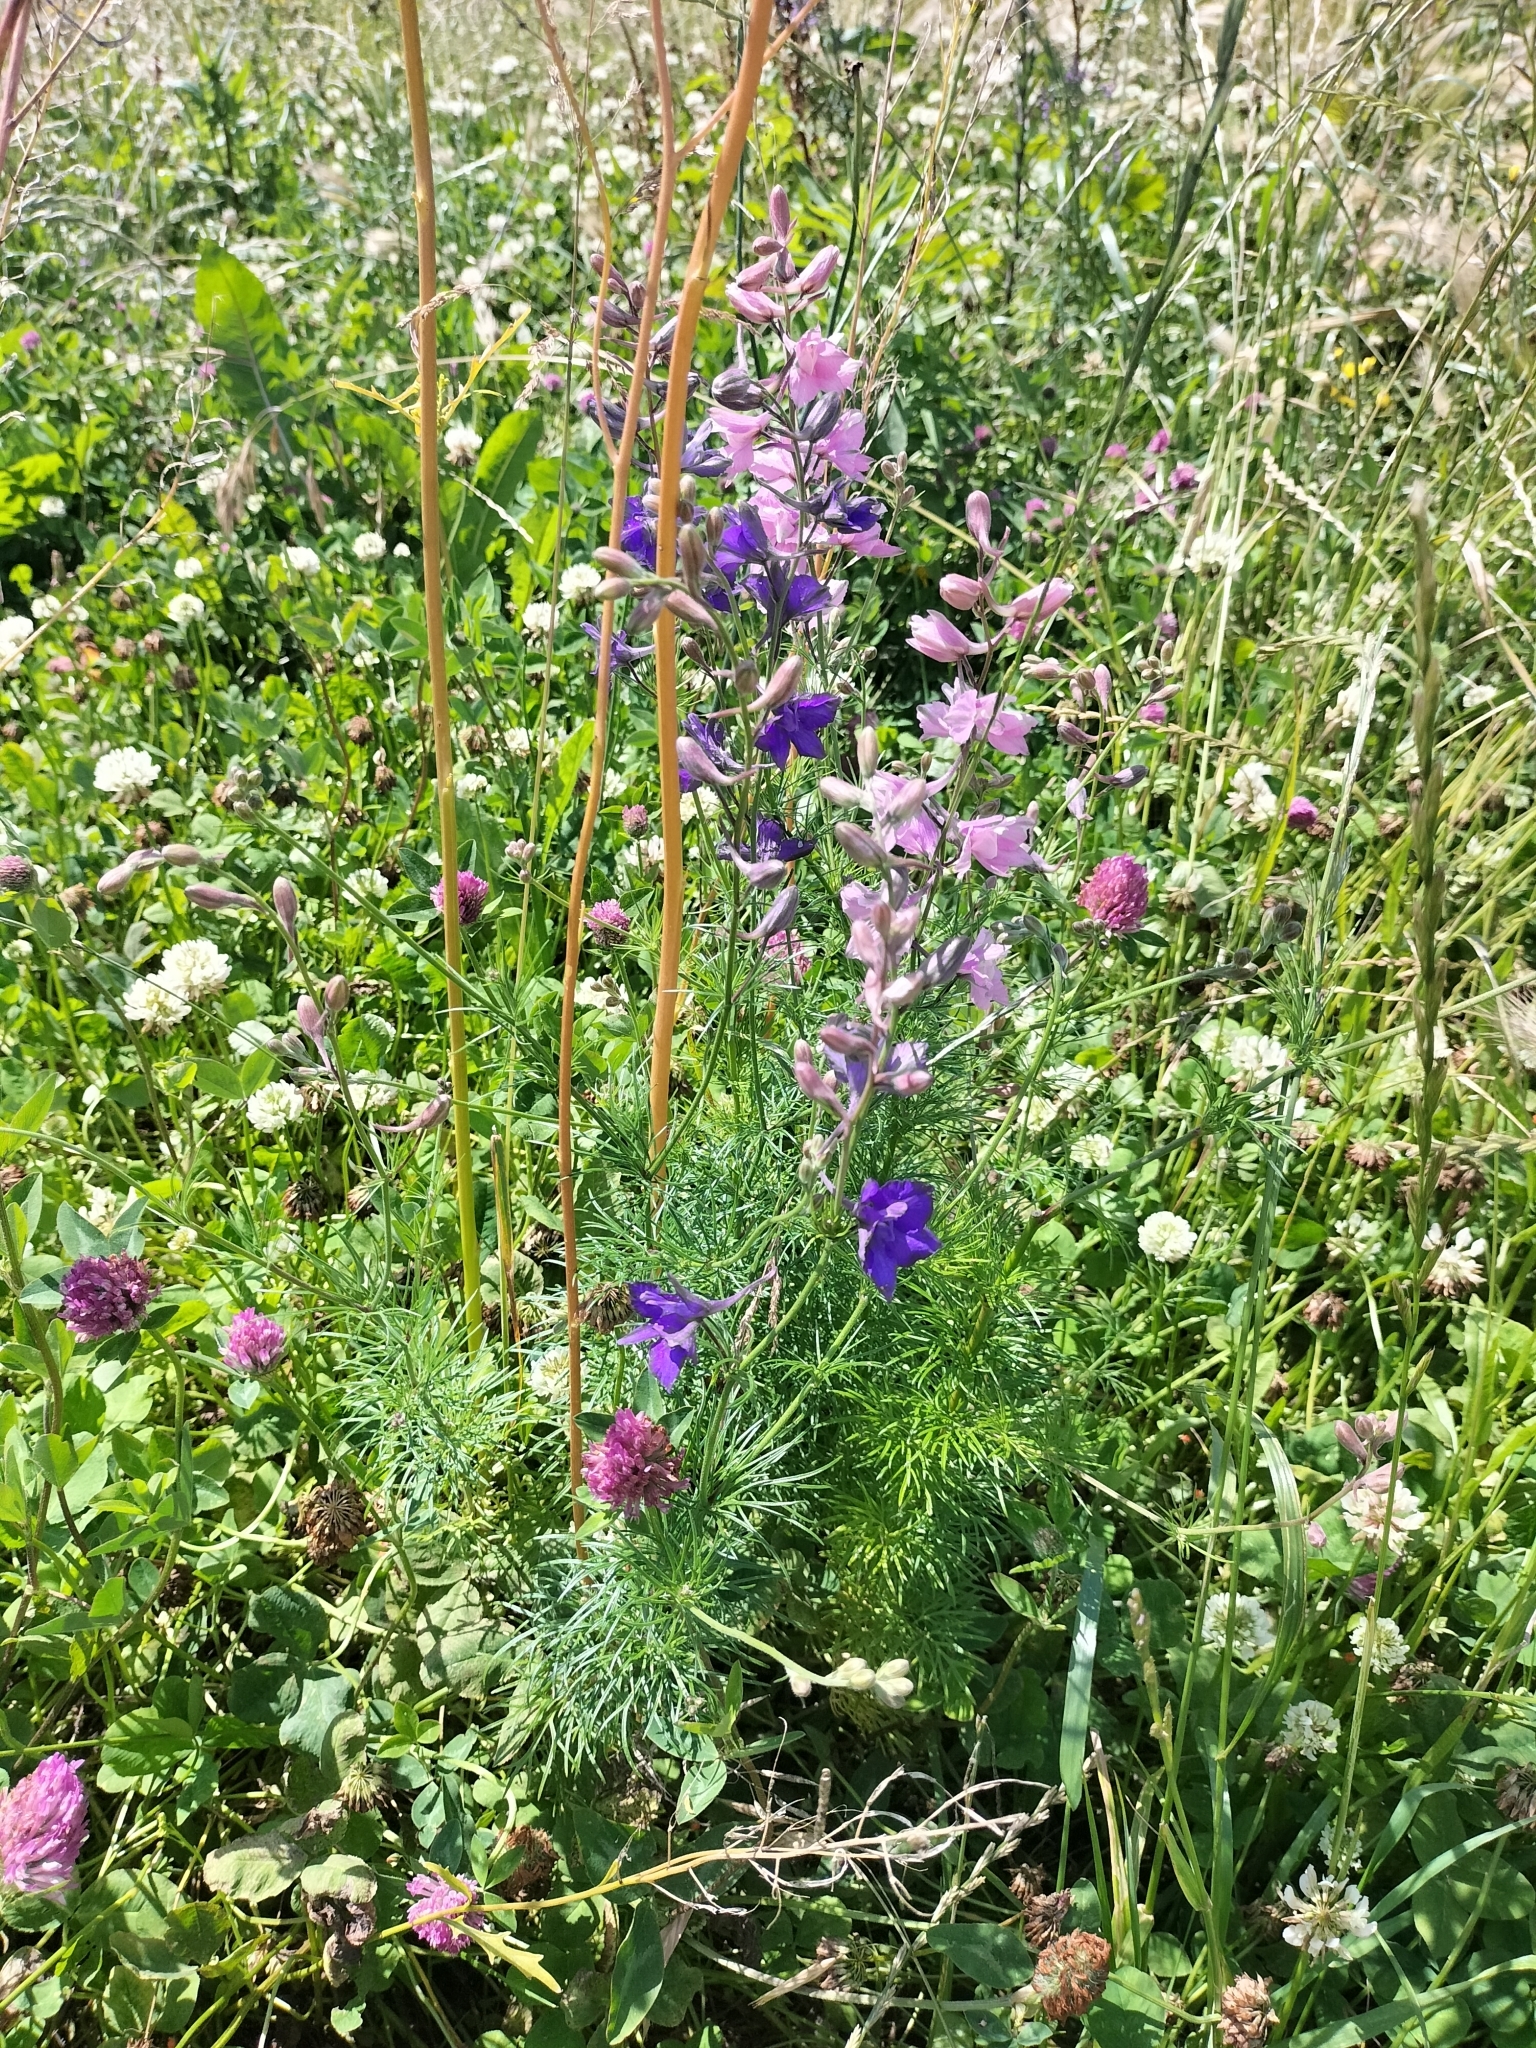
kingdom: Plantae
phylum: Tracheophyta
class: Magnoliopsida
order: Ranunculales
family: Ranunculaceae
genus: Delphinium
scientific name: Delphinium ajacis
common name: Doubtful knight's-spur
